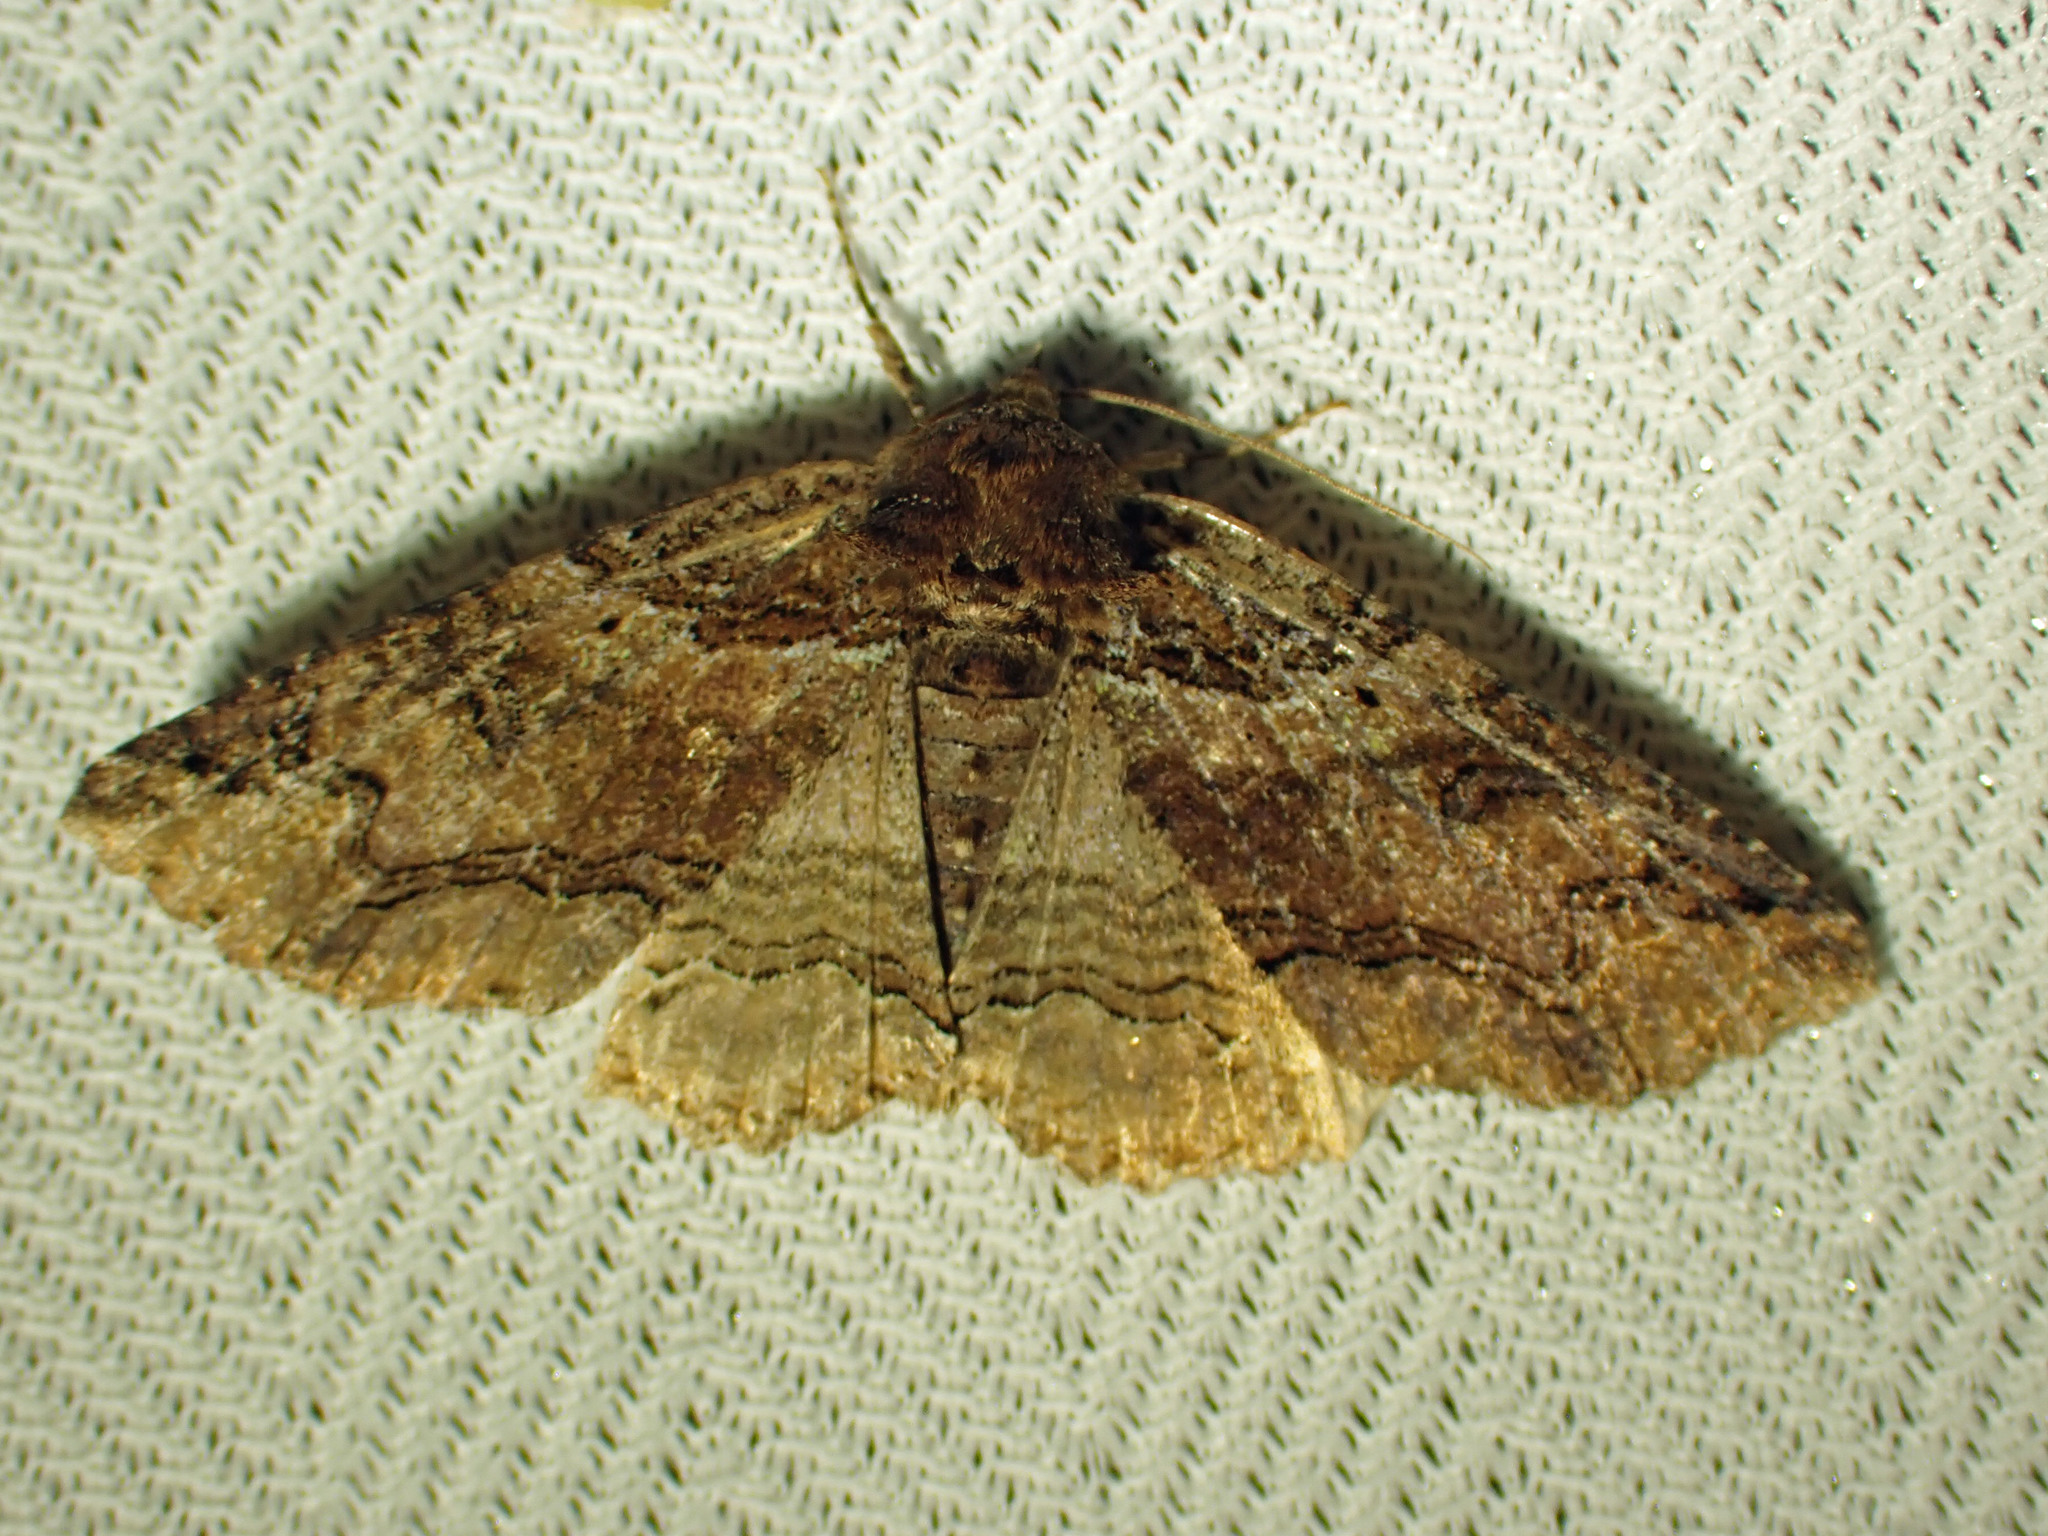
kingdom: Animalia
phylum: Arthropoda
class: Insecta
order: Lepidoptera
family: Erebidae
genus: Zale
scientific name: Zale minerea
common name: Colorful zale moth
